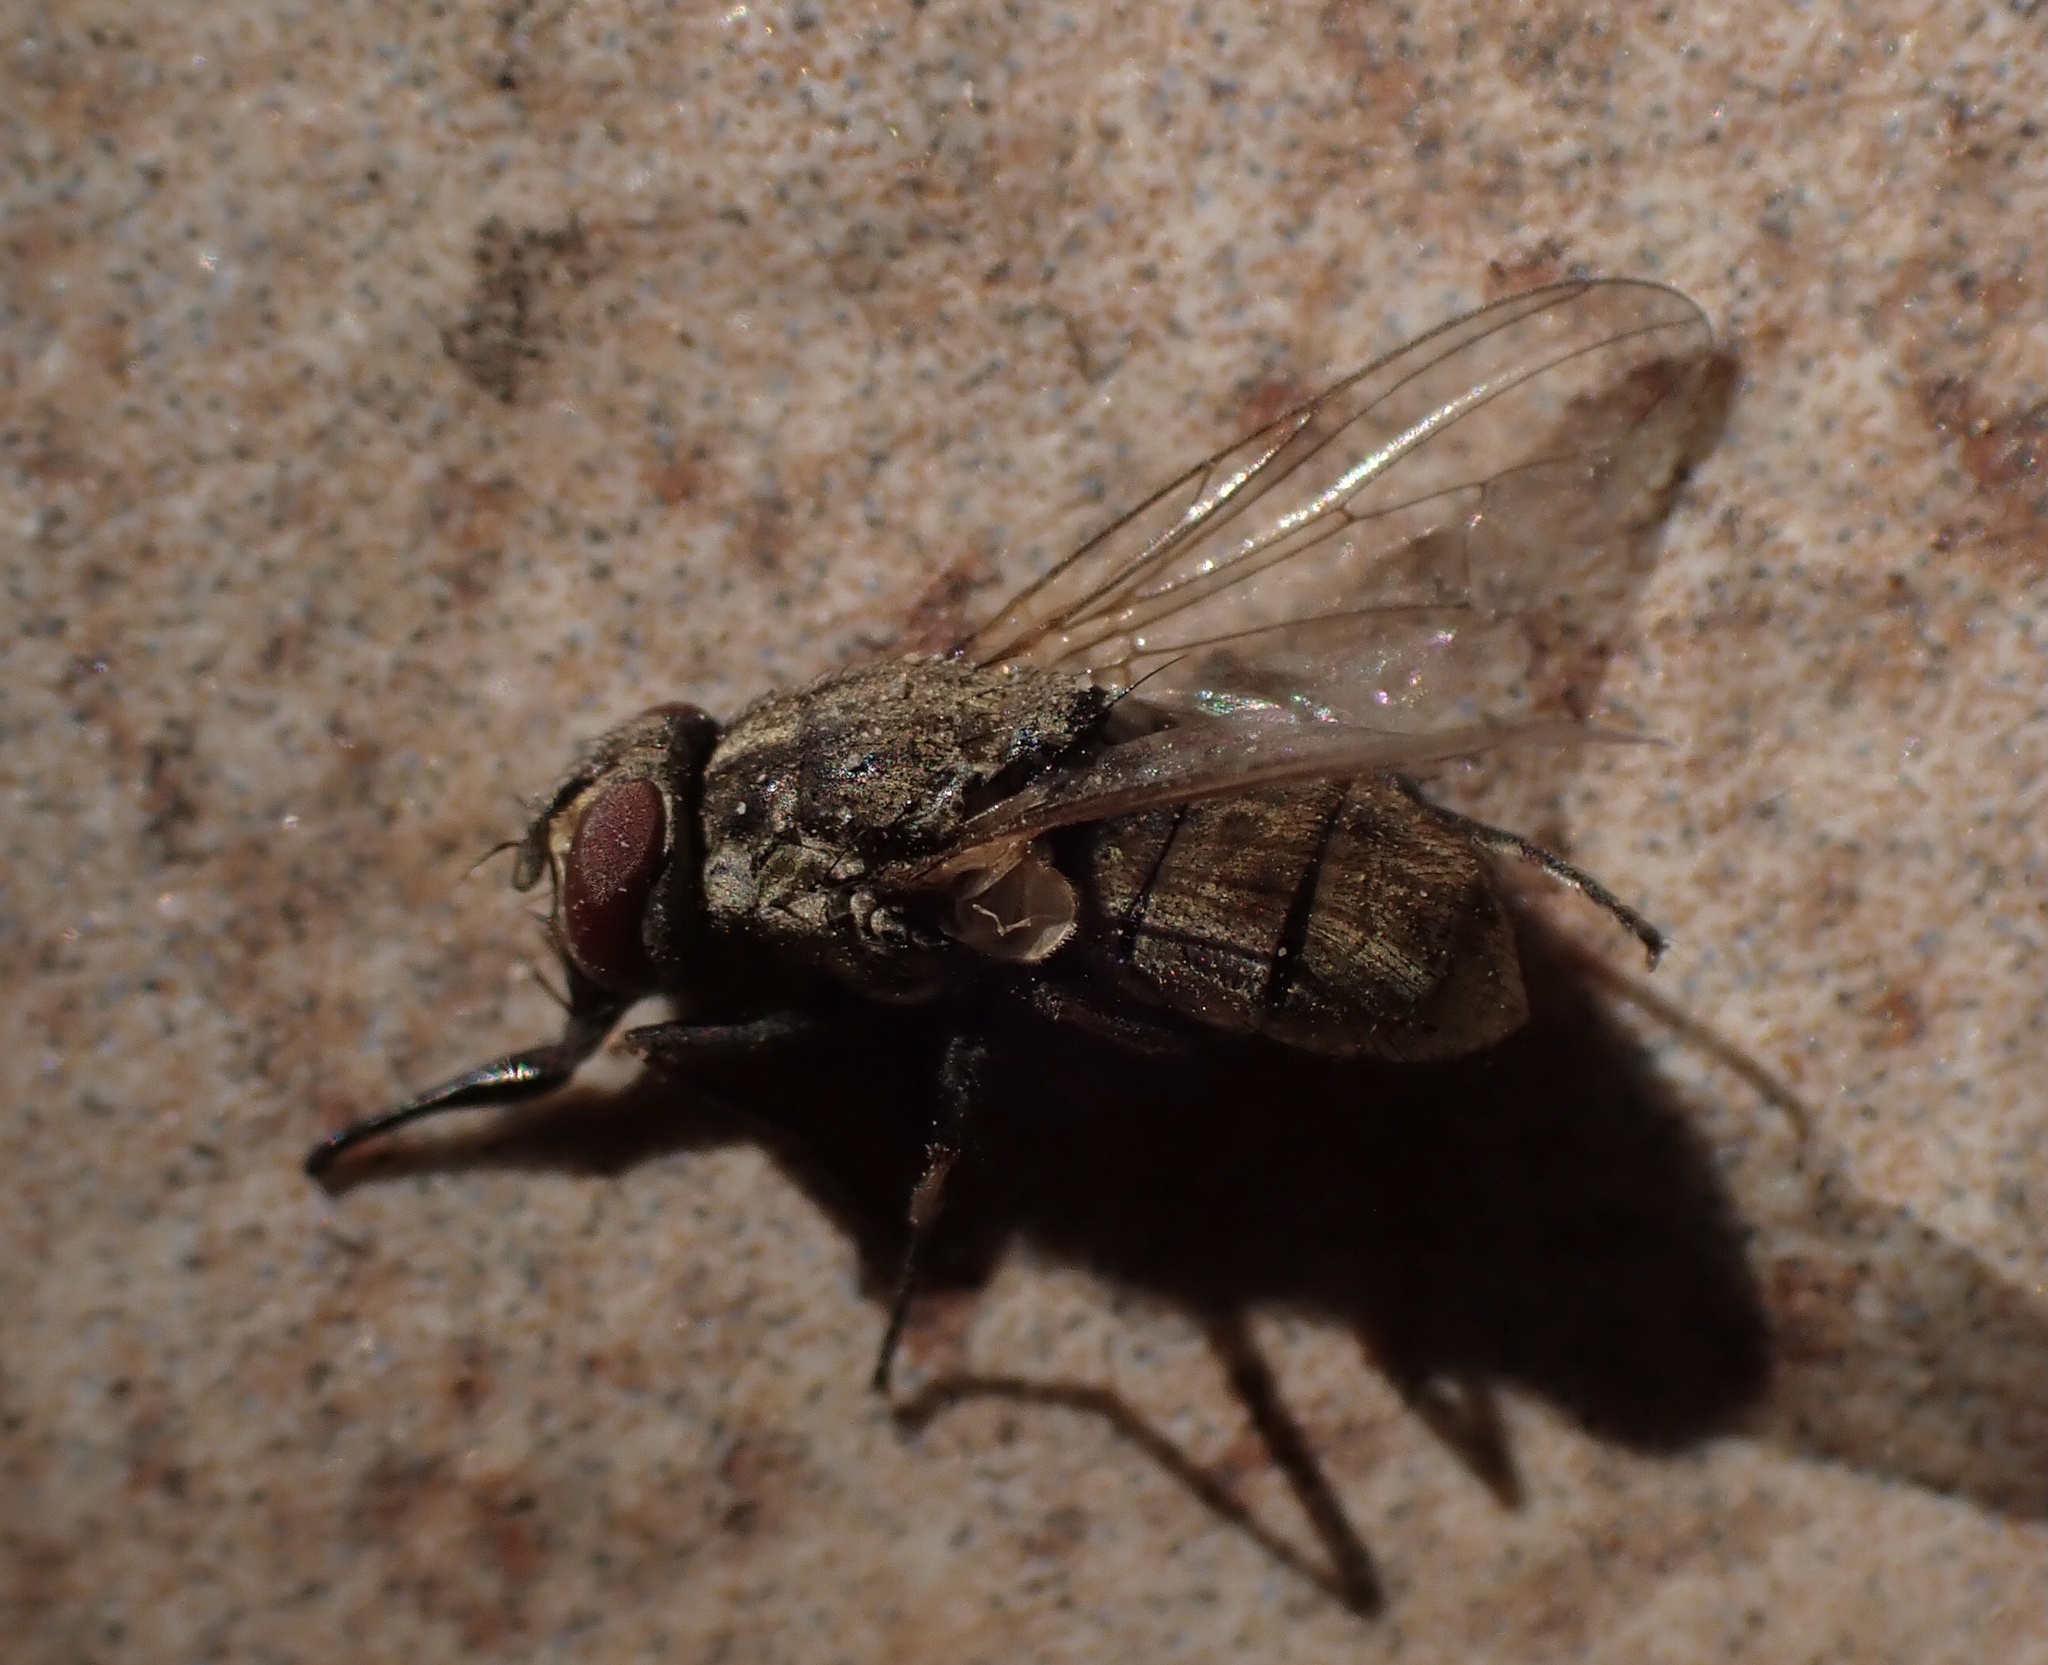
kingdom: Animalia
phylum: Arthropoda
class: Insecta
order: Diptera
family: Muscidae
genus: Stomoxys
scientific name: Stomoxys calcitrans
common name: Stable fly
